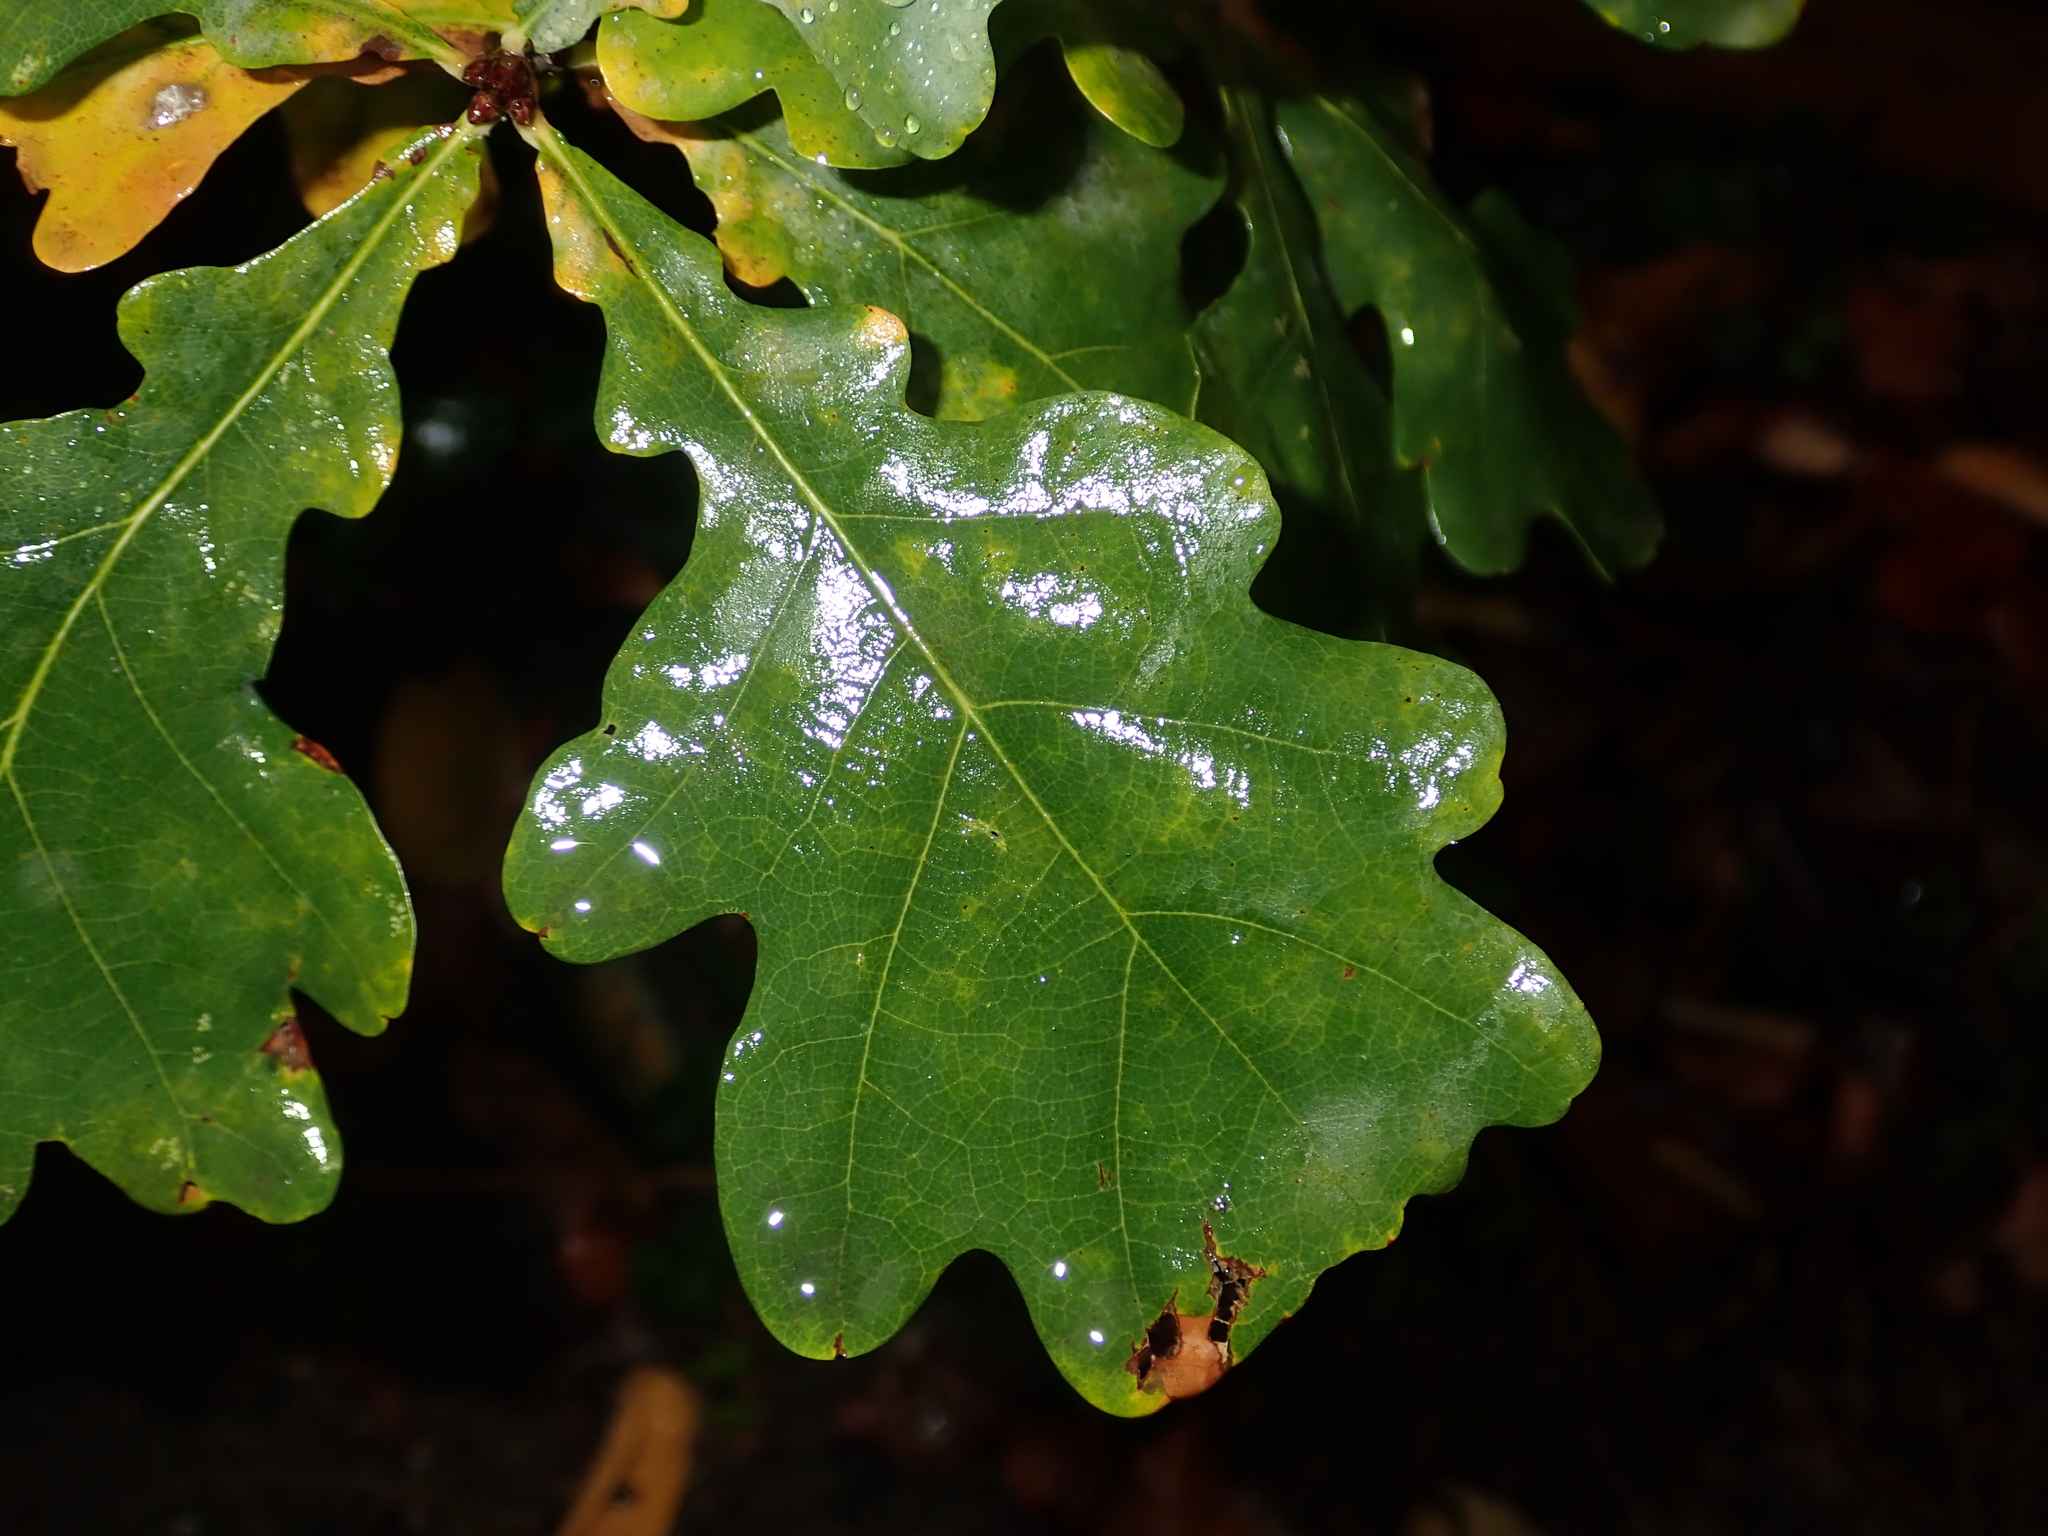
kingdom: Plantae
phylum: Tracheophyta
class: Magnoliopsida
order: Fagales
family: Fagaceae
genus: Quercus
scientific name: Quercus robur
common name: Pedunculate oak
